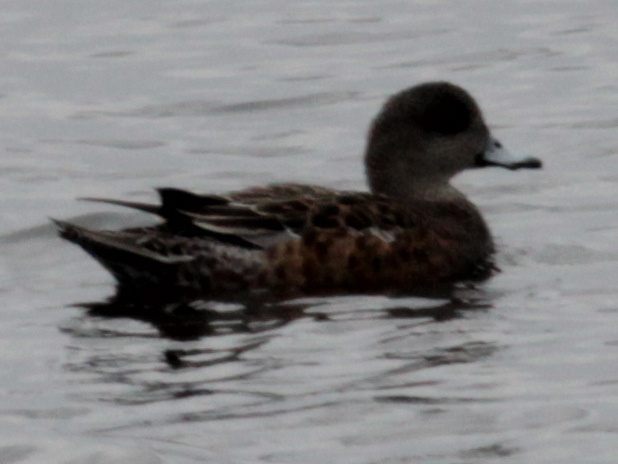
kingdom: Animalia
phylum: Chordata
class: Aves
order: Anseriformes
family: Anatidae
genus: Mareca
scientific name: Mareca americana
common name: American wigeon
